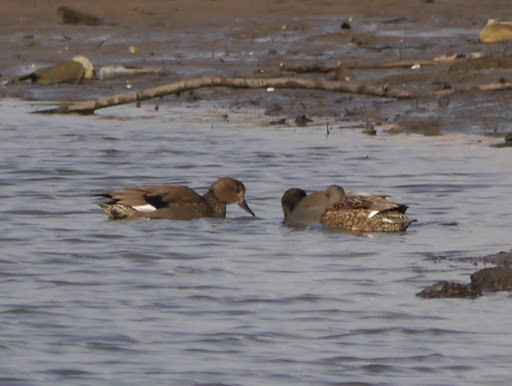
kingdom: Animalia
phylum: Chordata
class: Aves
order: Anseriformes
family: Anatidae
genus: Mareca
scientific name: Mareca strepera
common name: Gadwall
